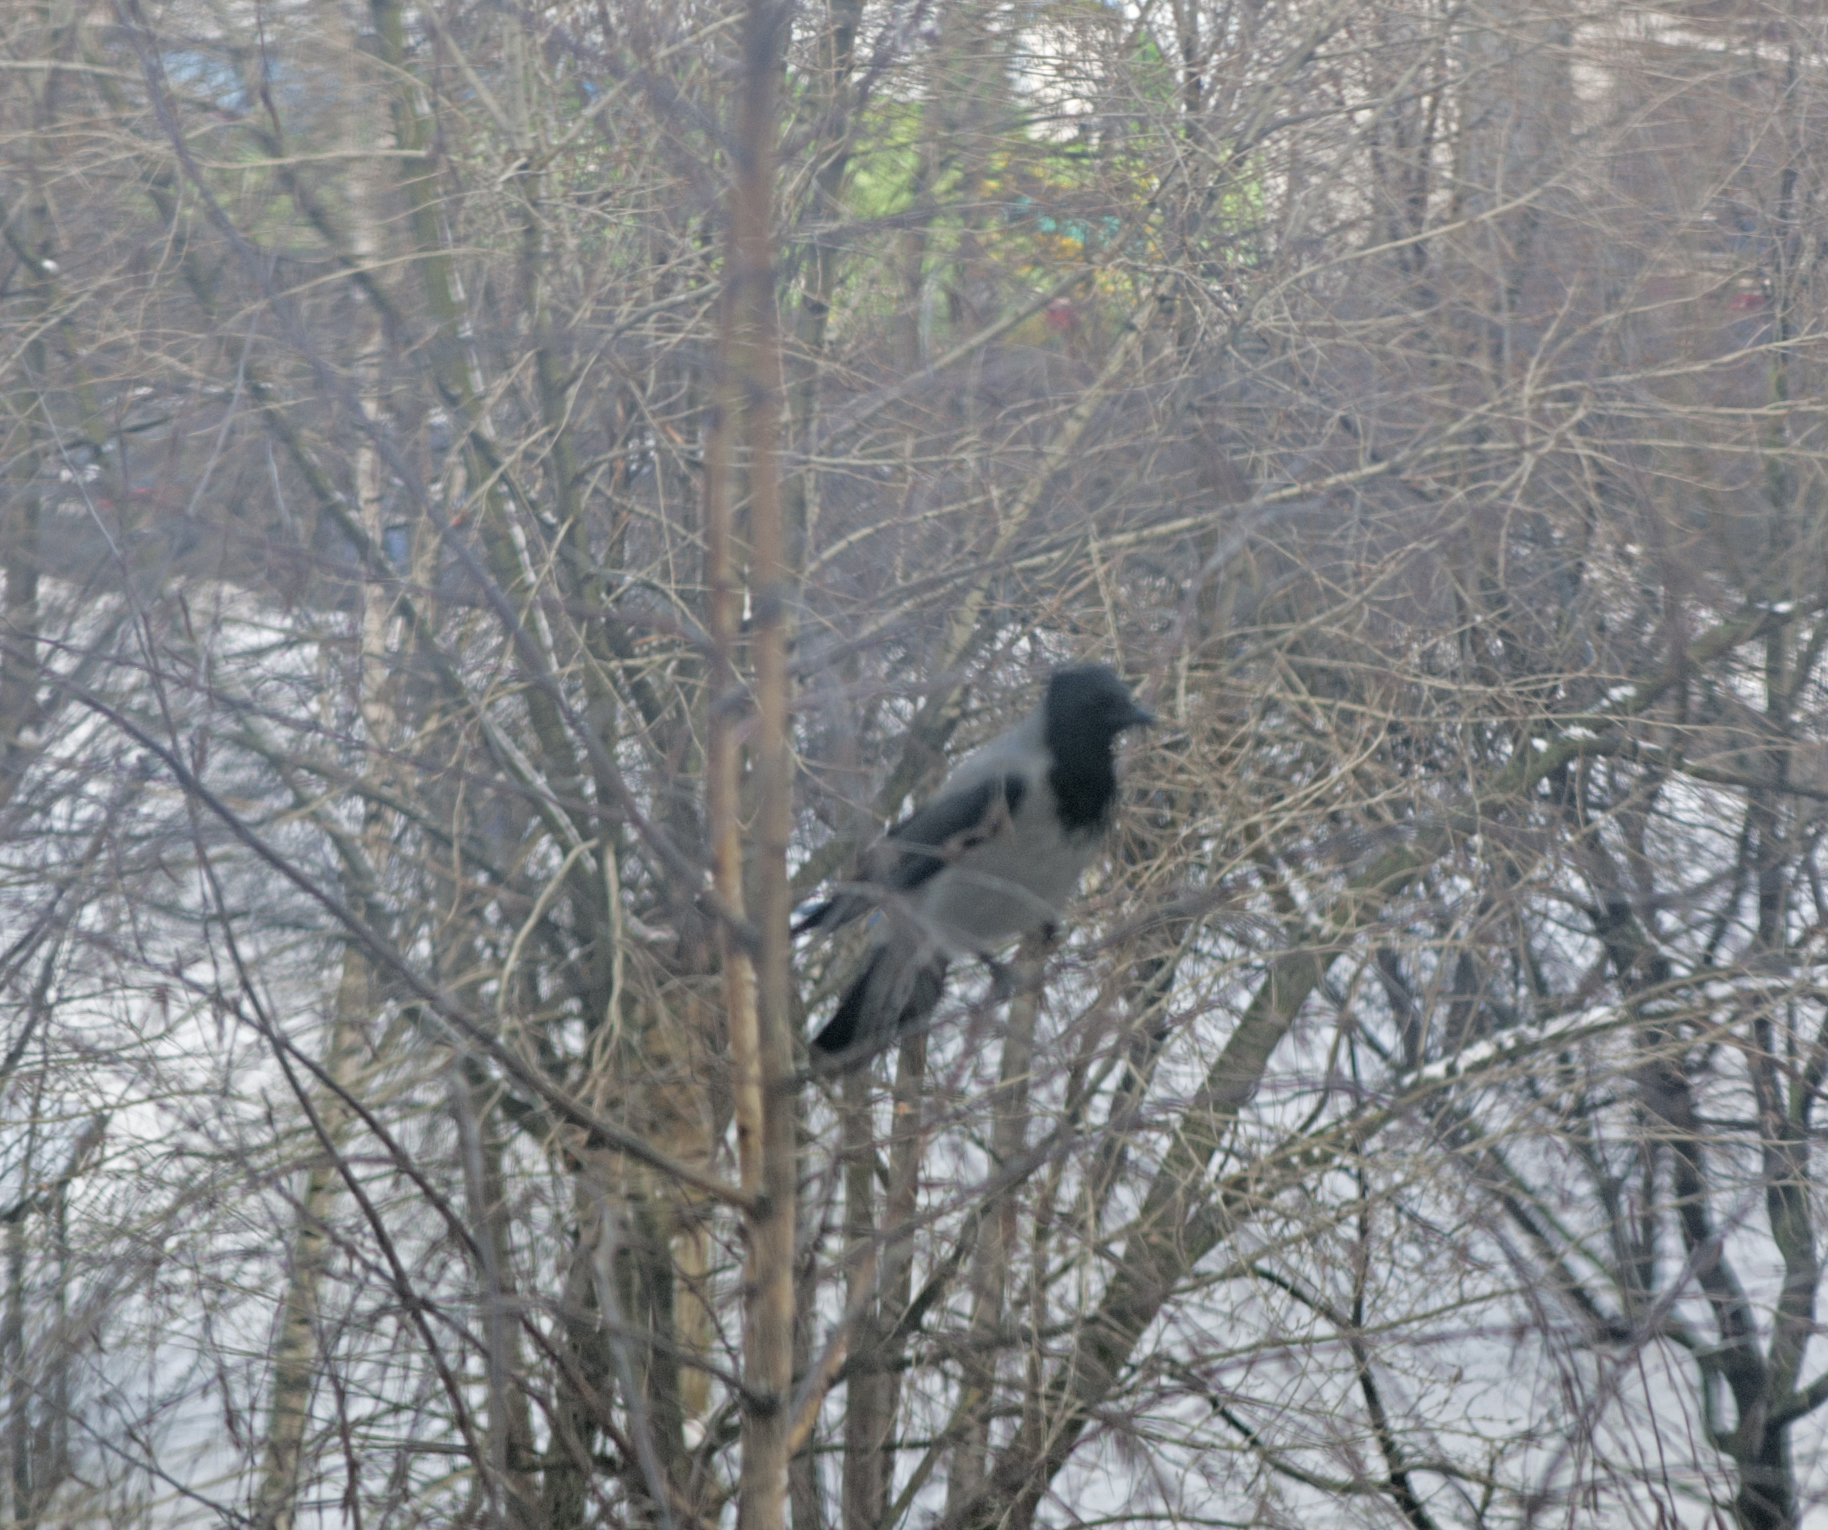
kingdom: Animalia
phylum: Chordata
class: Aves
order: Passeriformes
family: Corvidae
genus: Corvus
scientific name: Corvus cornix
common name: Hooded crow
